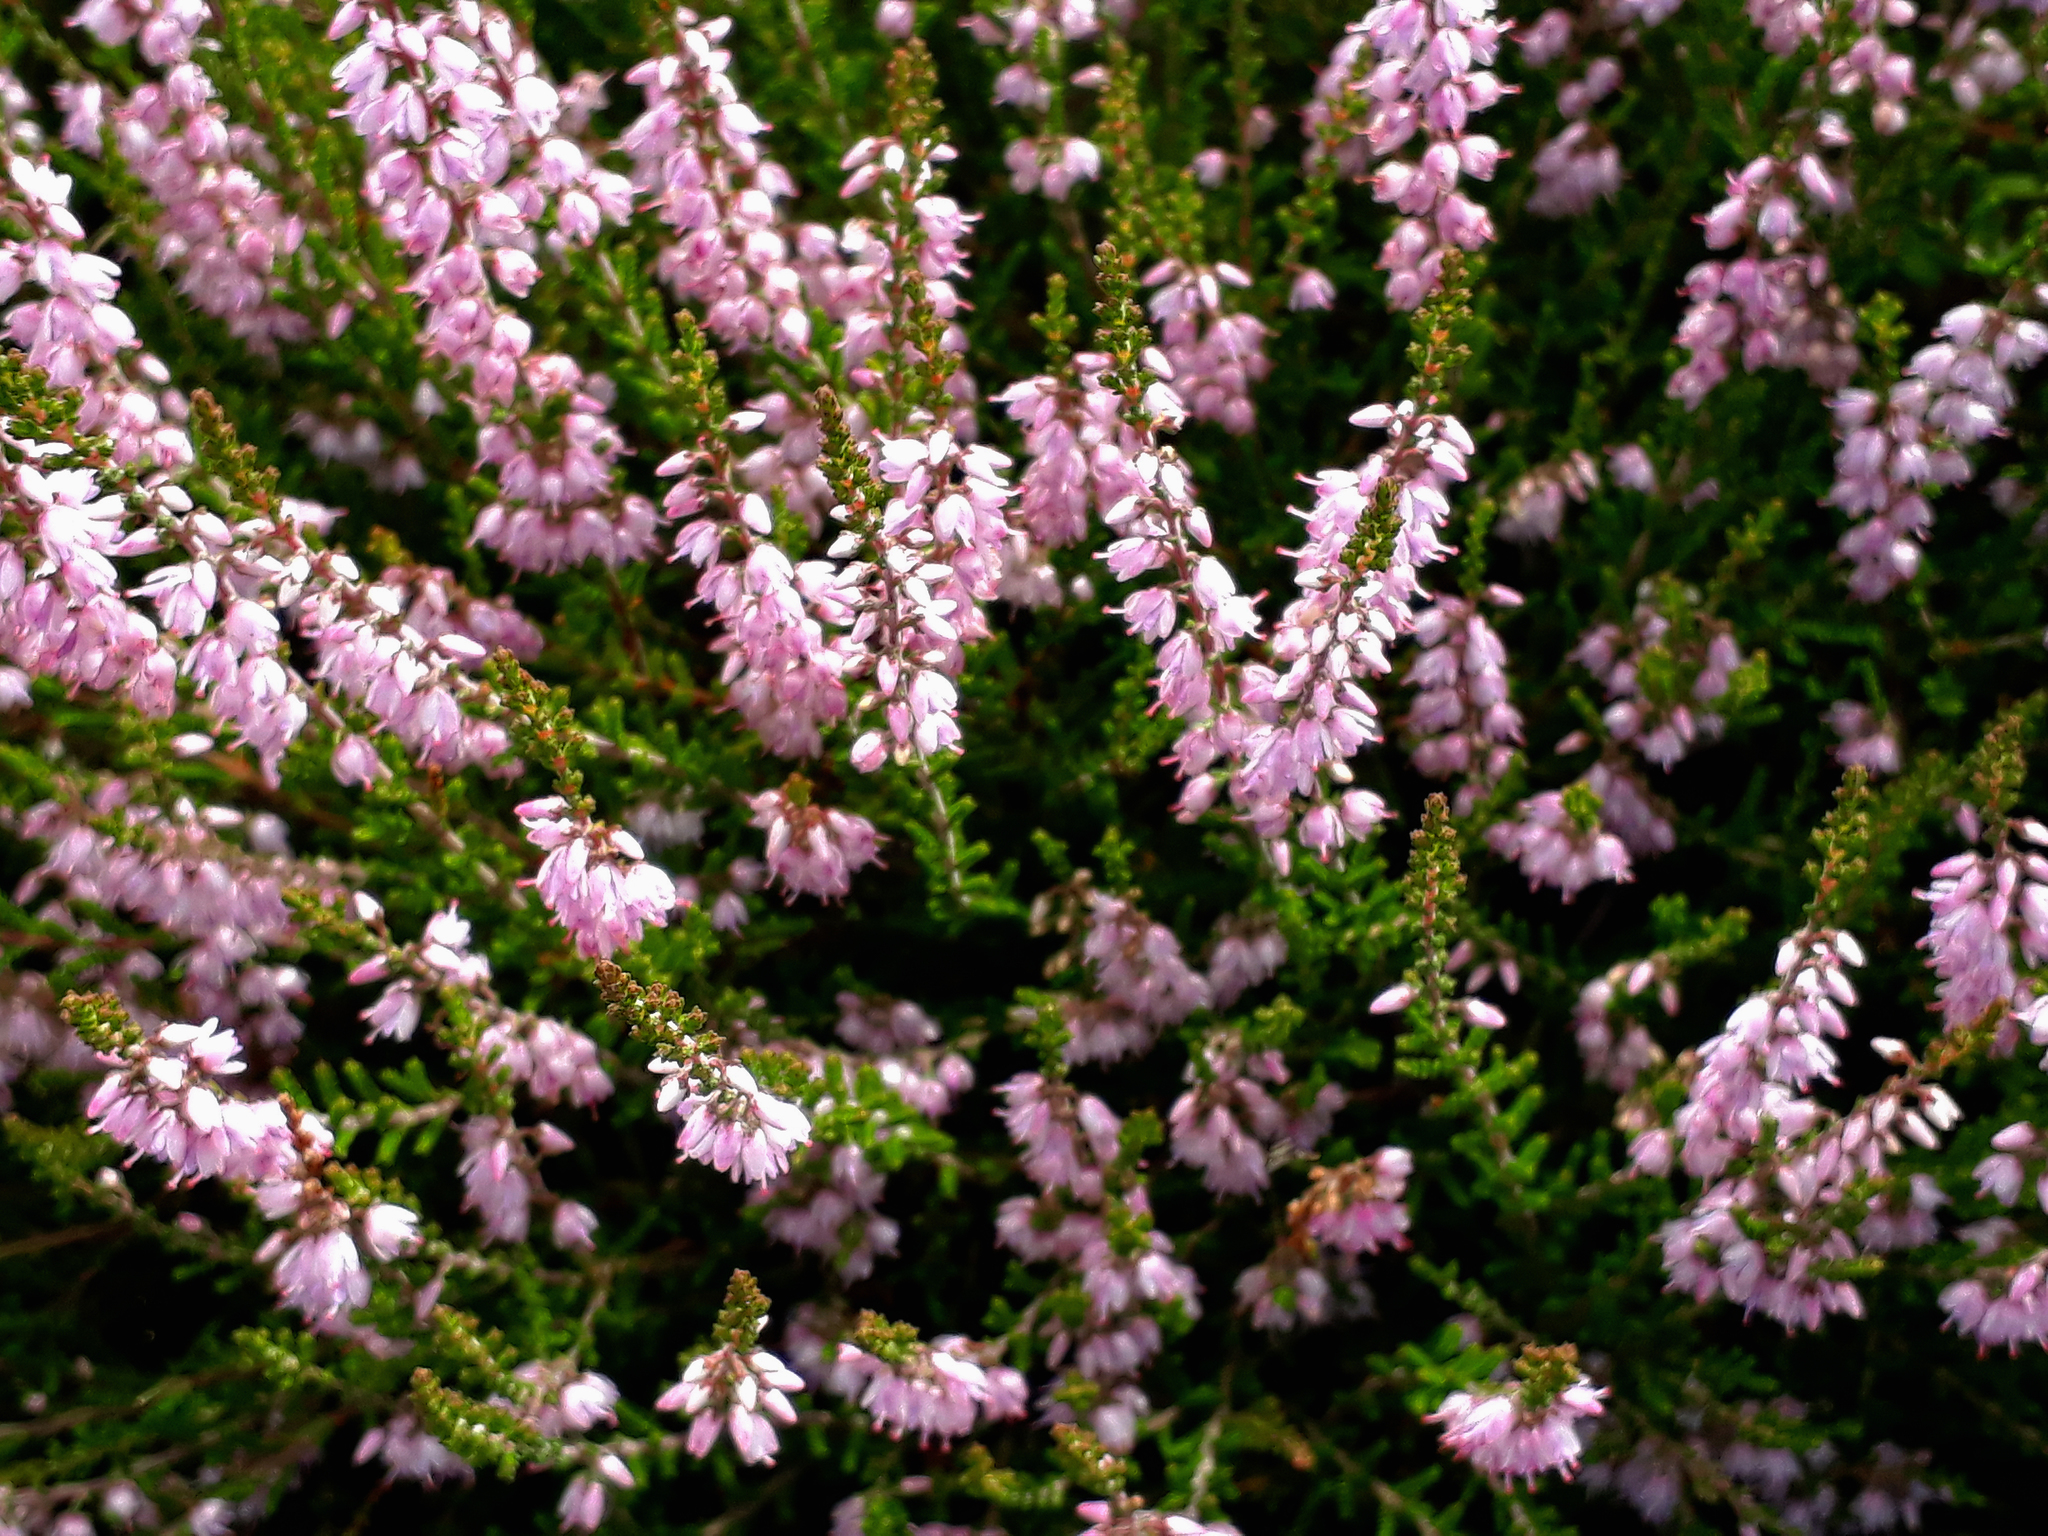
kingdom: Plantae
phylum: Tracheophyta
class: Magnoliopsida
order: Ericales
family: Ericaceae
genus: Calluna
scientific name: Calluna vulgaris
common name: Heather
